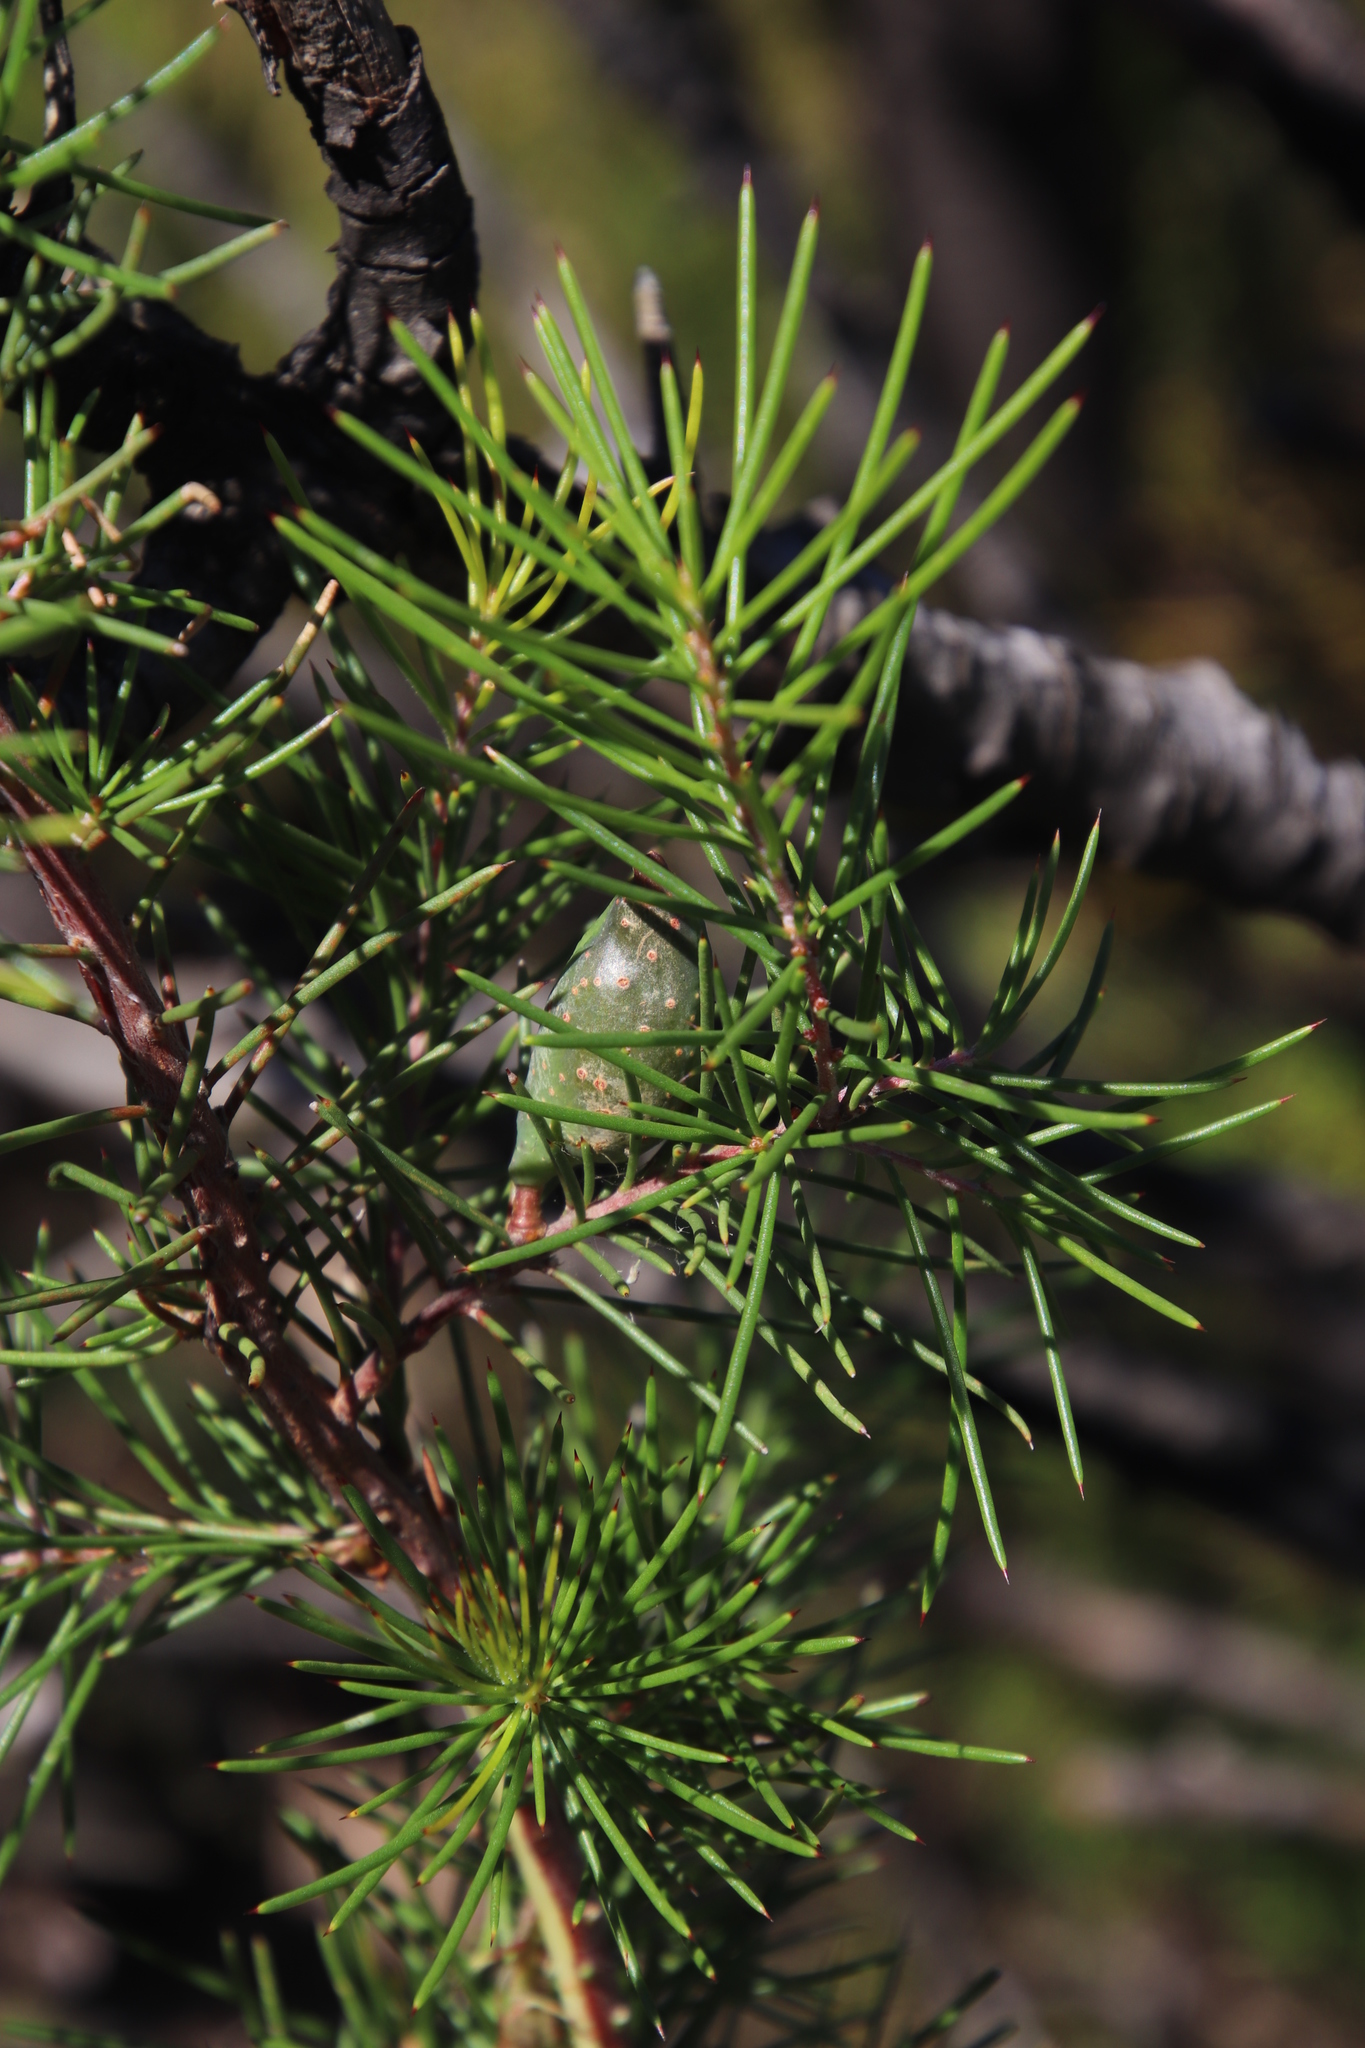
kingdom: Plantae
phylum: Tracheophyta
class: Magnoliopsida
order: Proteales
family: Proteaceae
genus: Hakea
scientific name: Hakea sericea
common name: Needle bush
